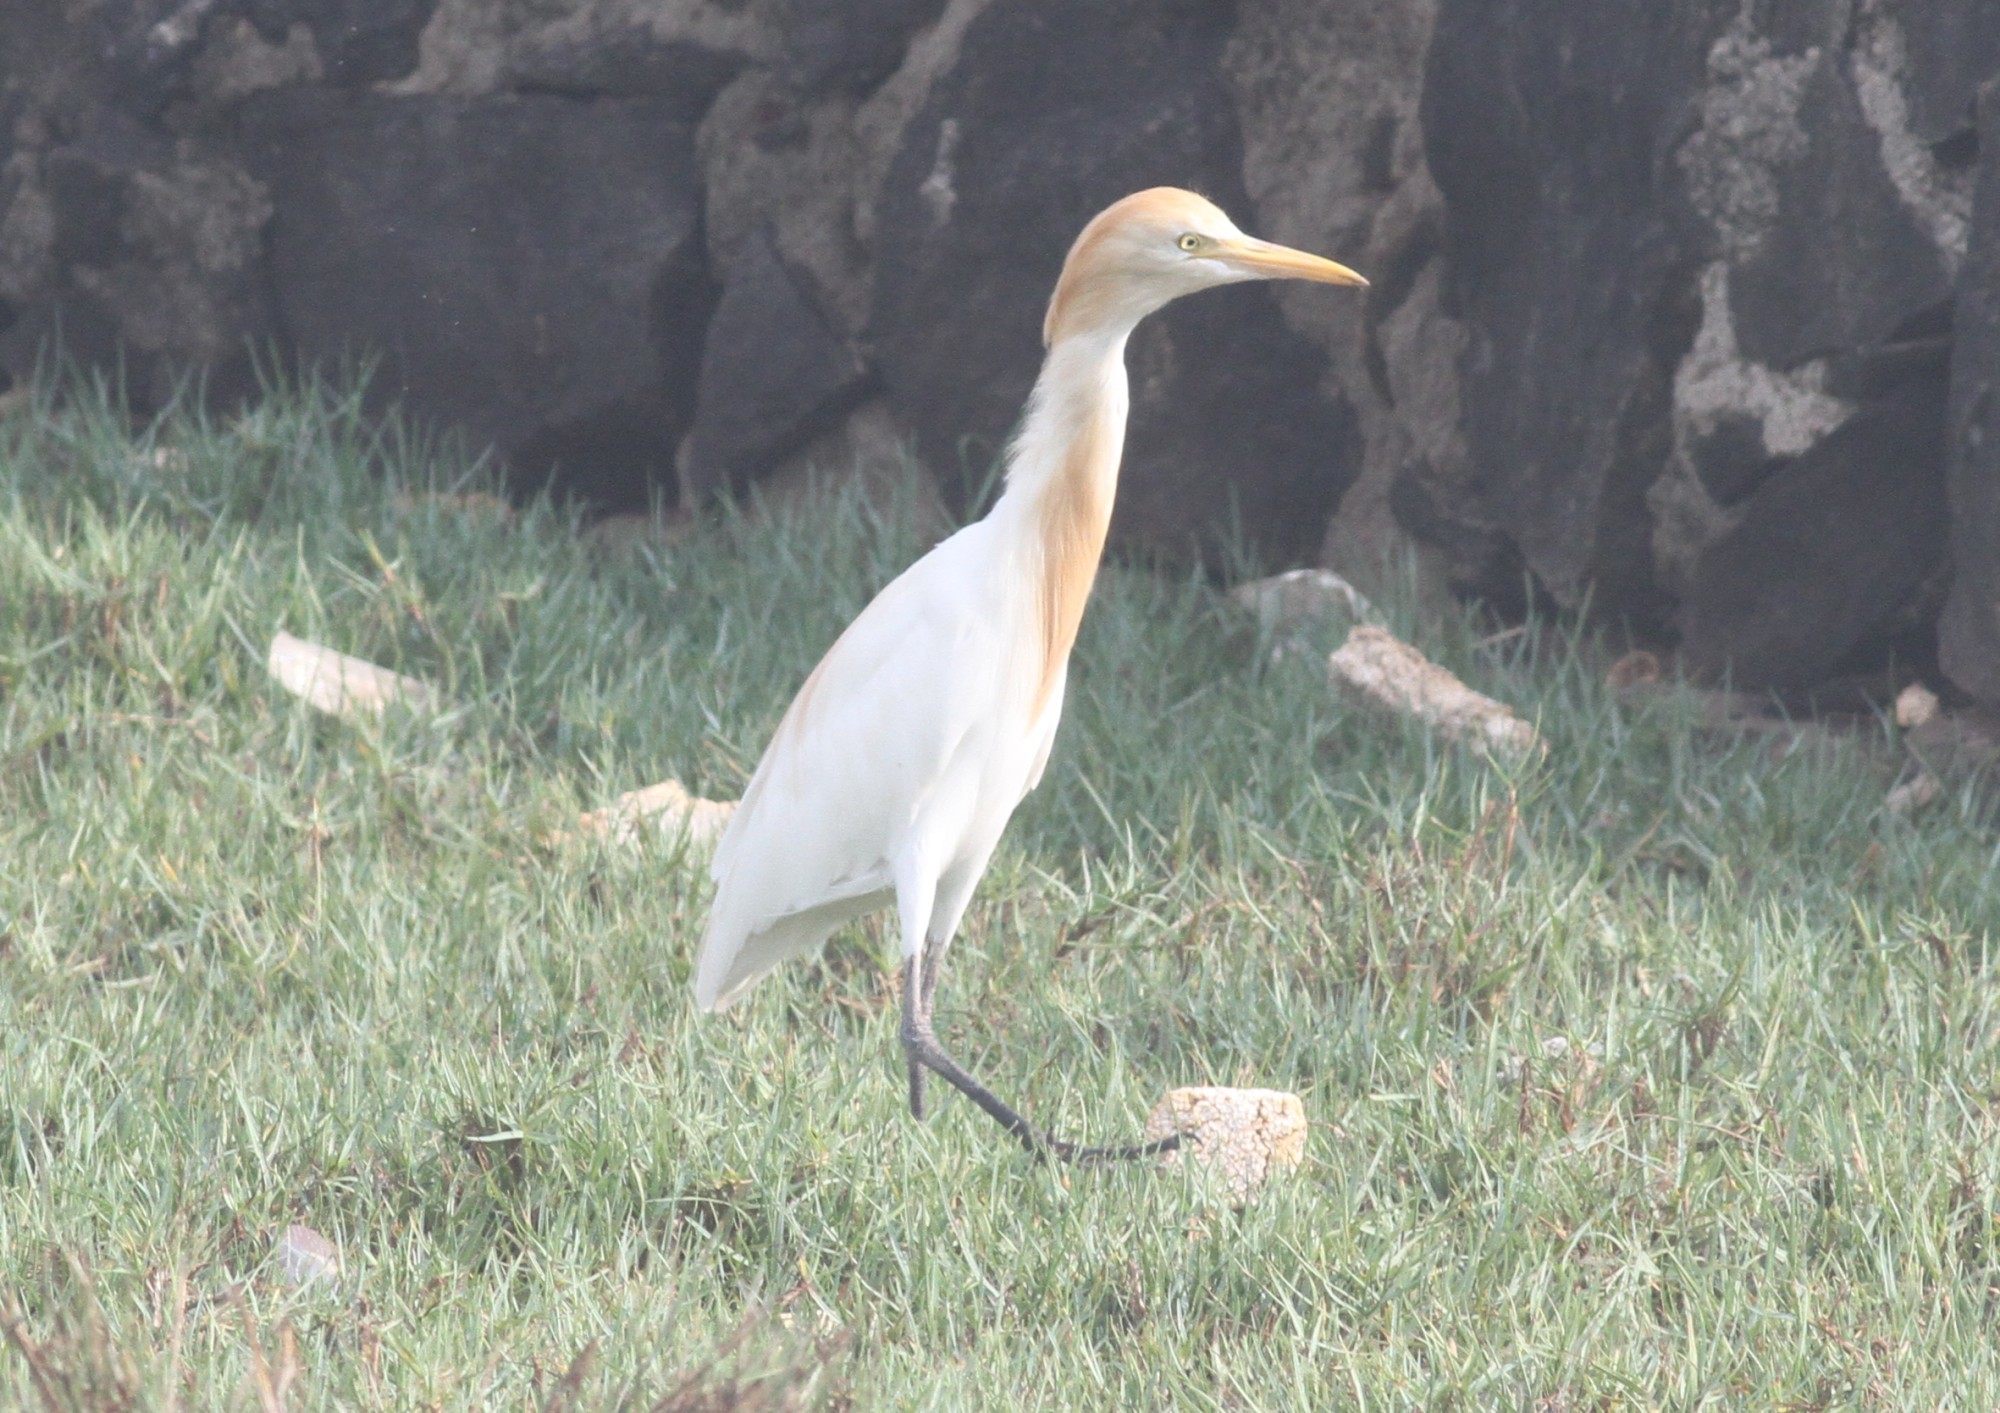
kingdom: Animalia
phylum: Chordata
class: Aves
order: Pelecaniformes
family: Ardeidae
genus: Bubulcus
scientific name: Bubulcus coromandus
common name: Eastern cattle egret
